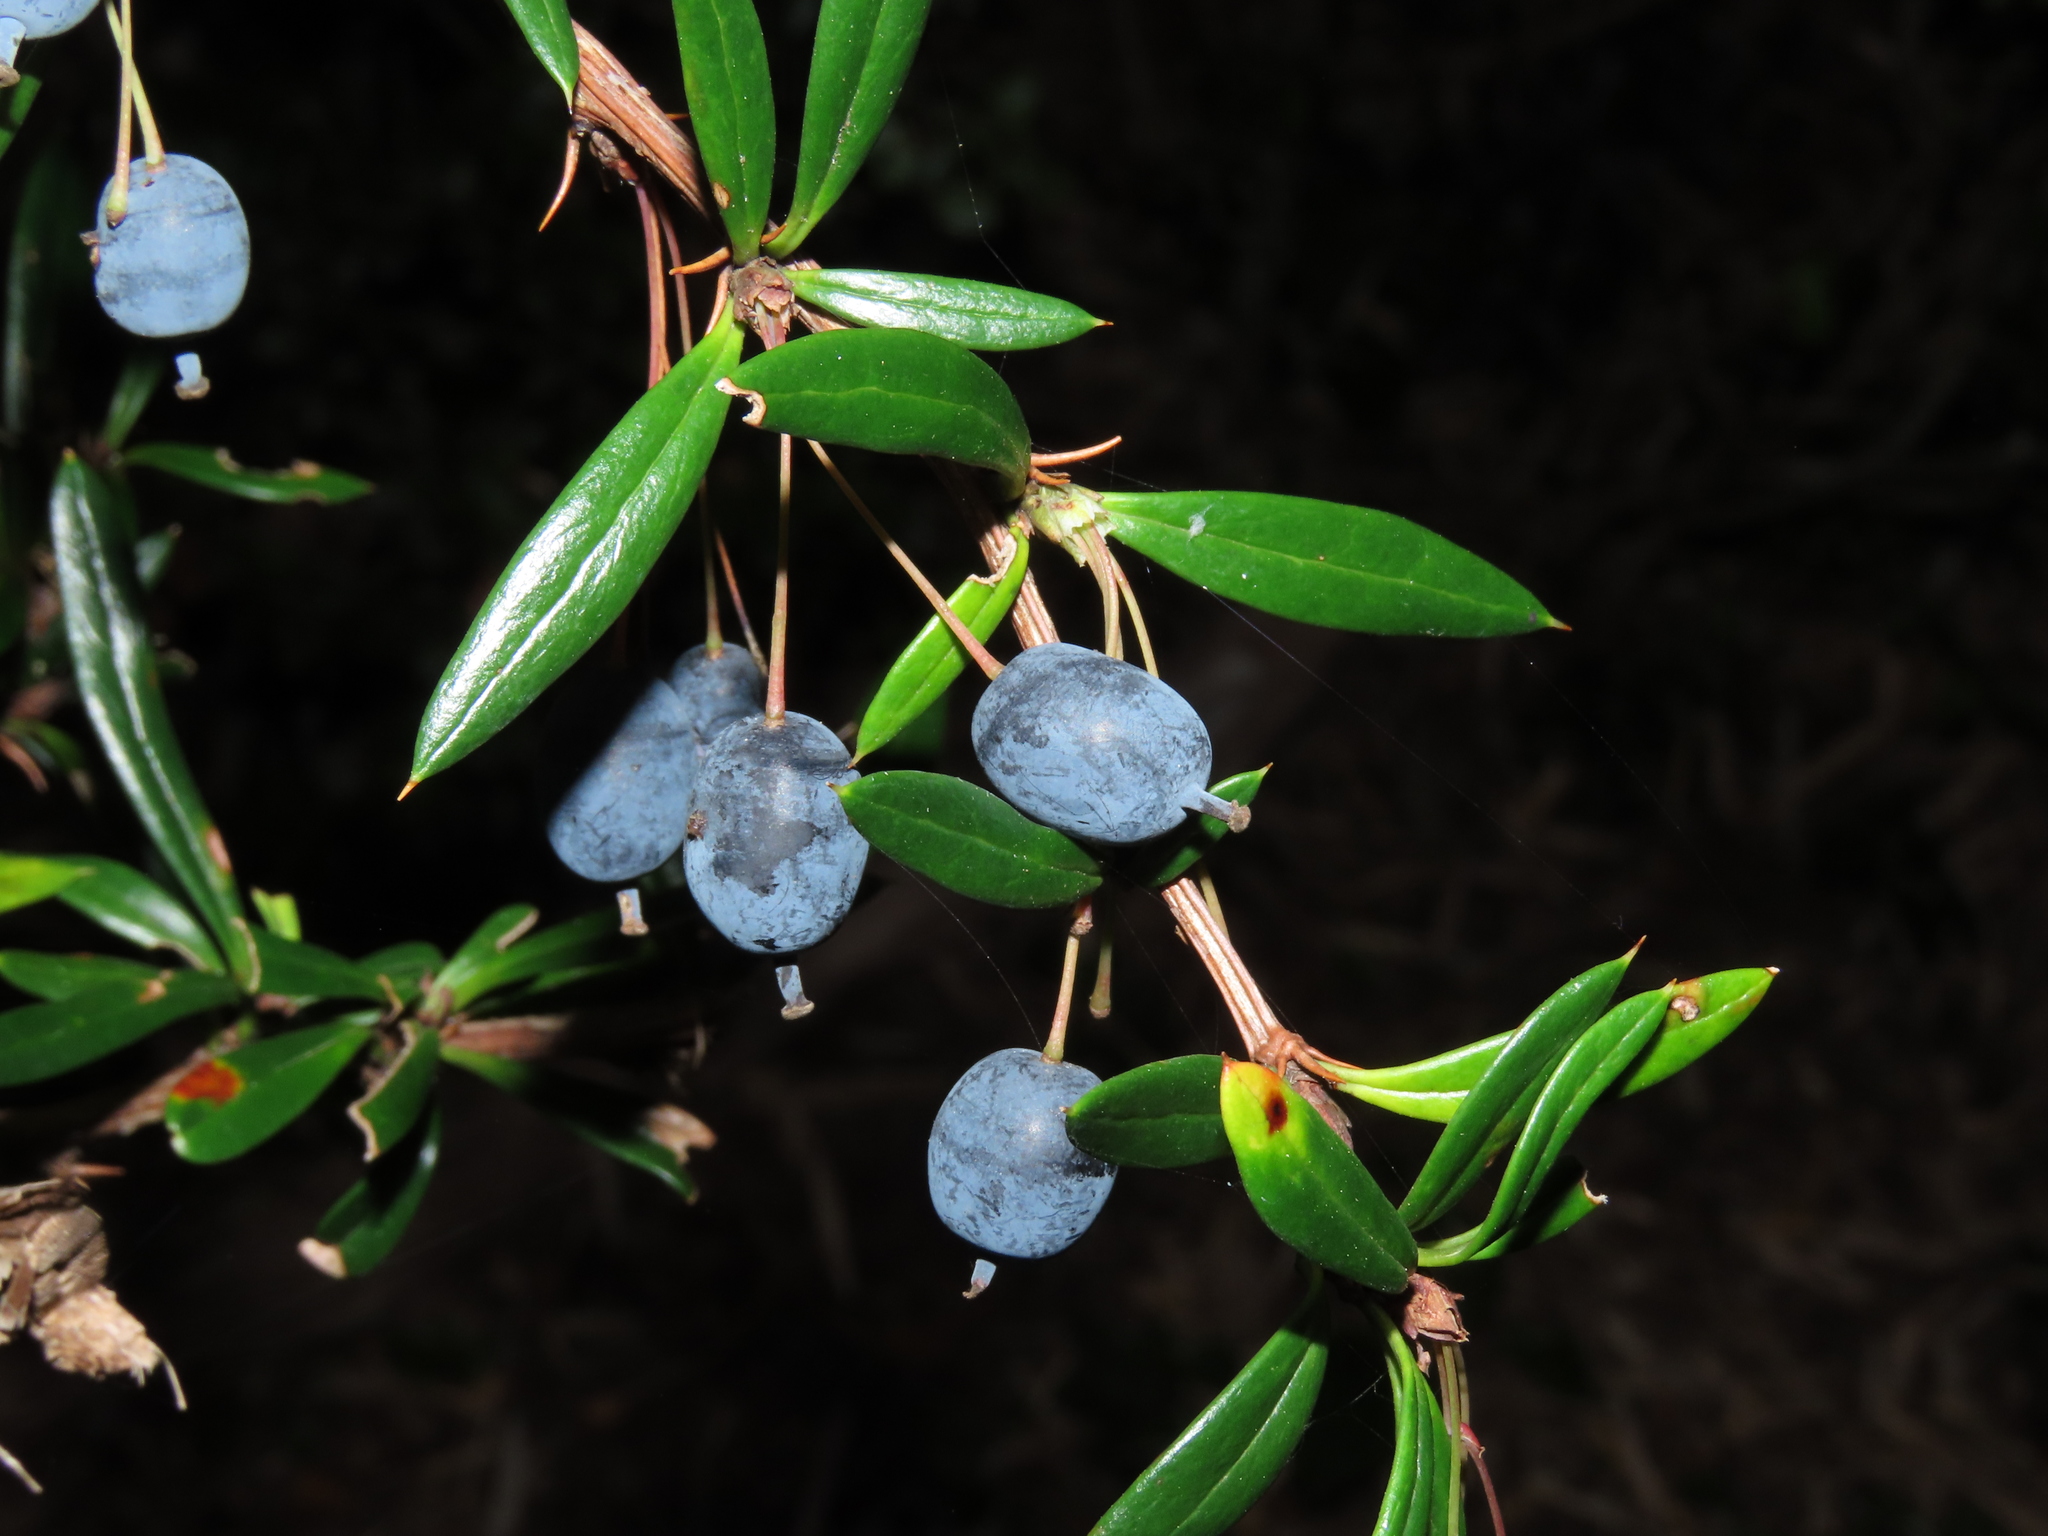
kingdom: Plantae
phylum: Tracheophyta
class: Magnoliopsida
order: Ranunculales
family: Berberidaceae
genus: Berberis
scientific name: Berberis trigona
